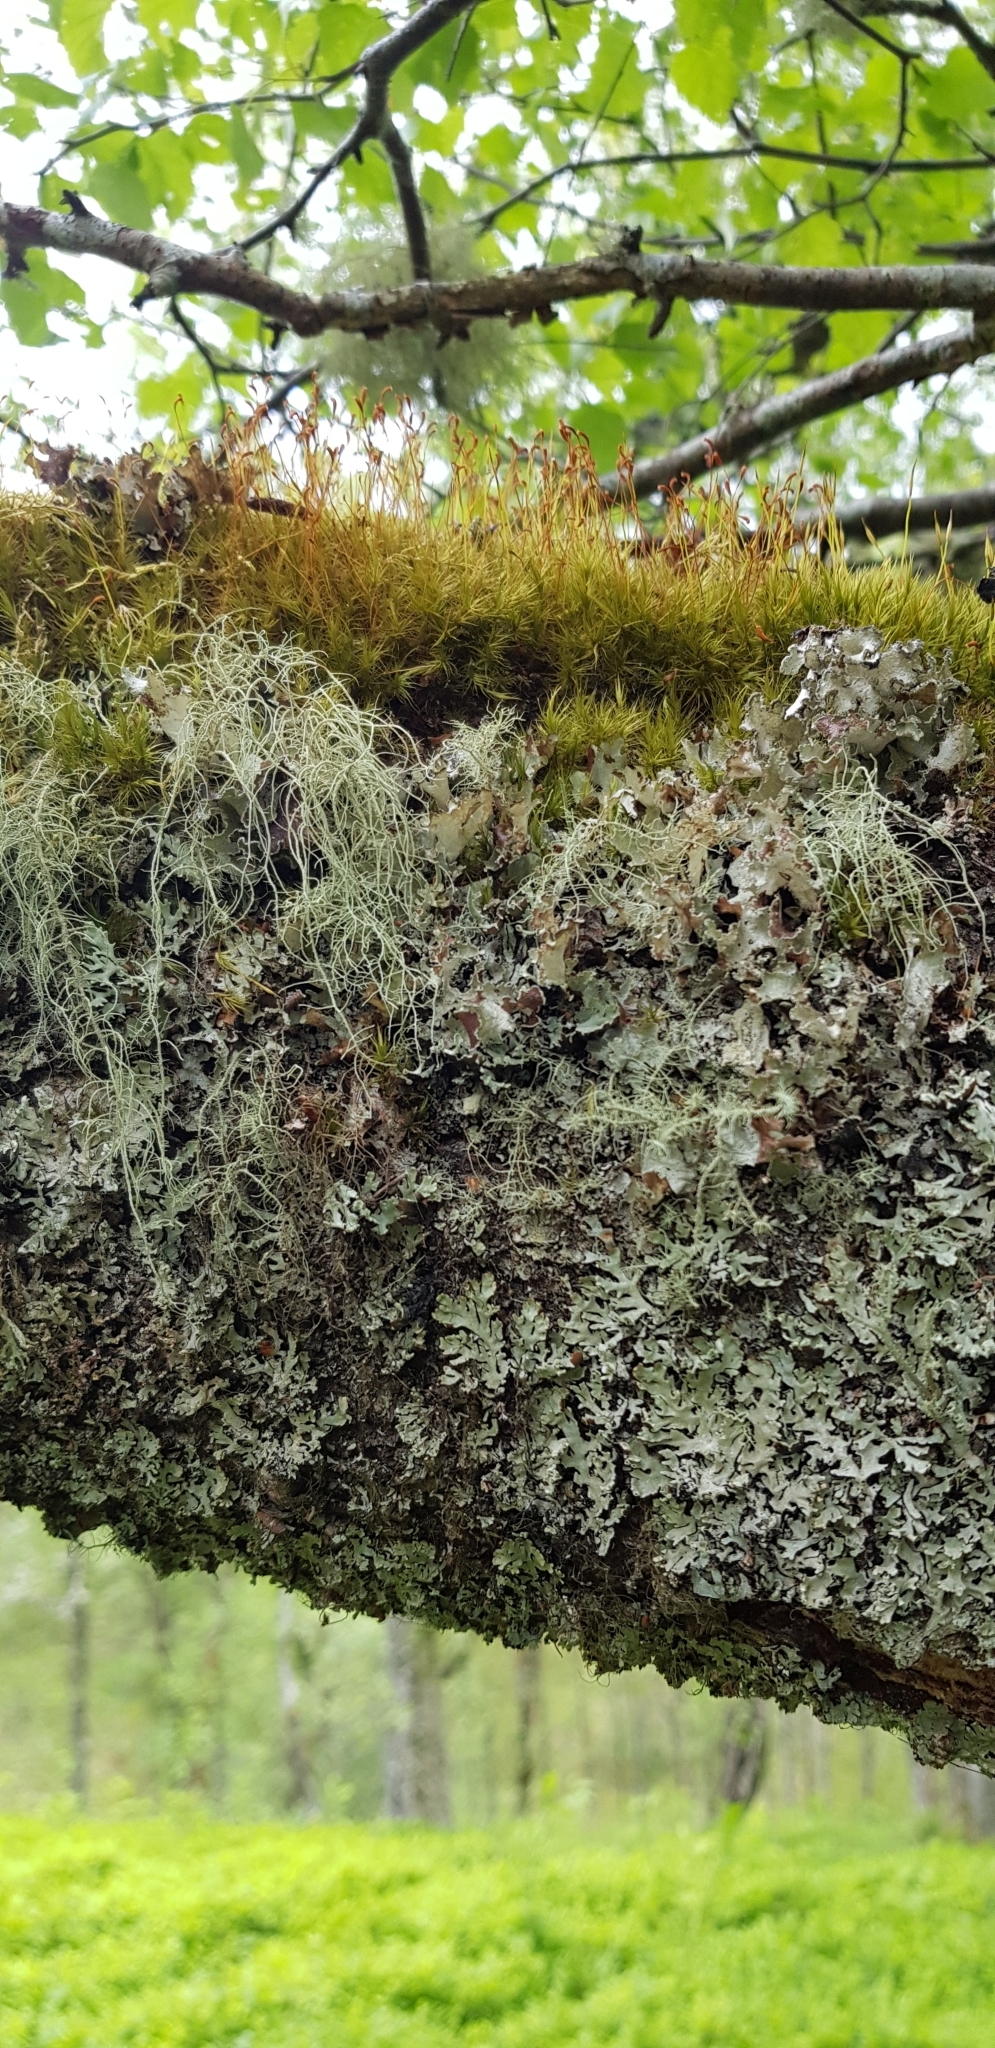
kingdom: Plantae
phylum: Bryophyta
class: Bryopsida
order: Dicranales
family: Dicranaceae
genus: Dicranum
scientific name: Dicranum scoparium
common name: Broom fork-moss
